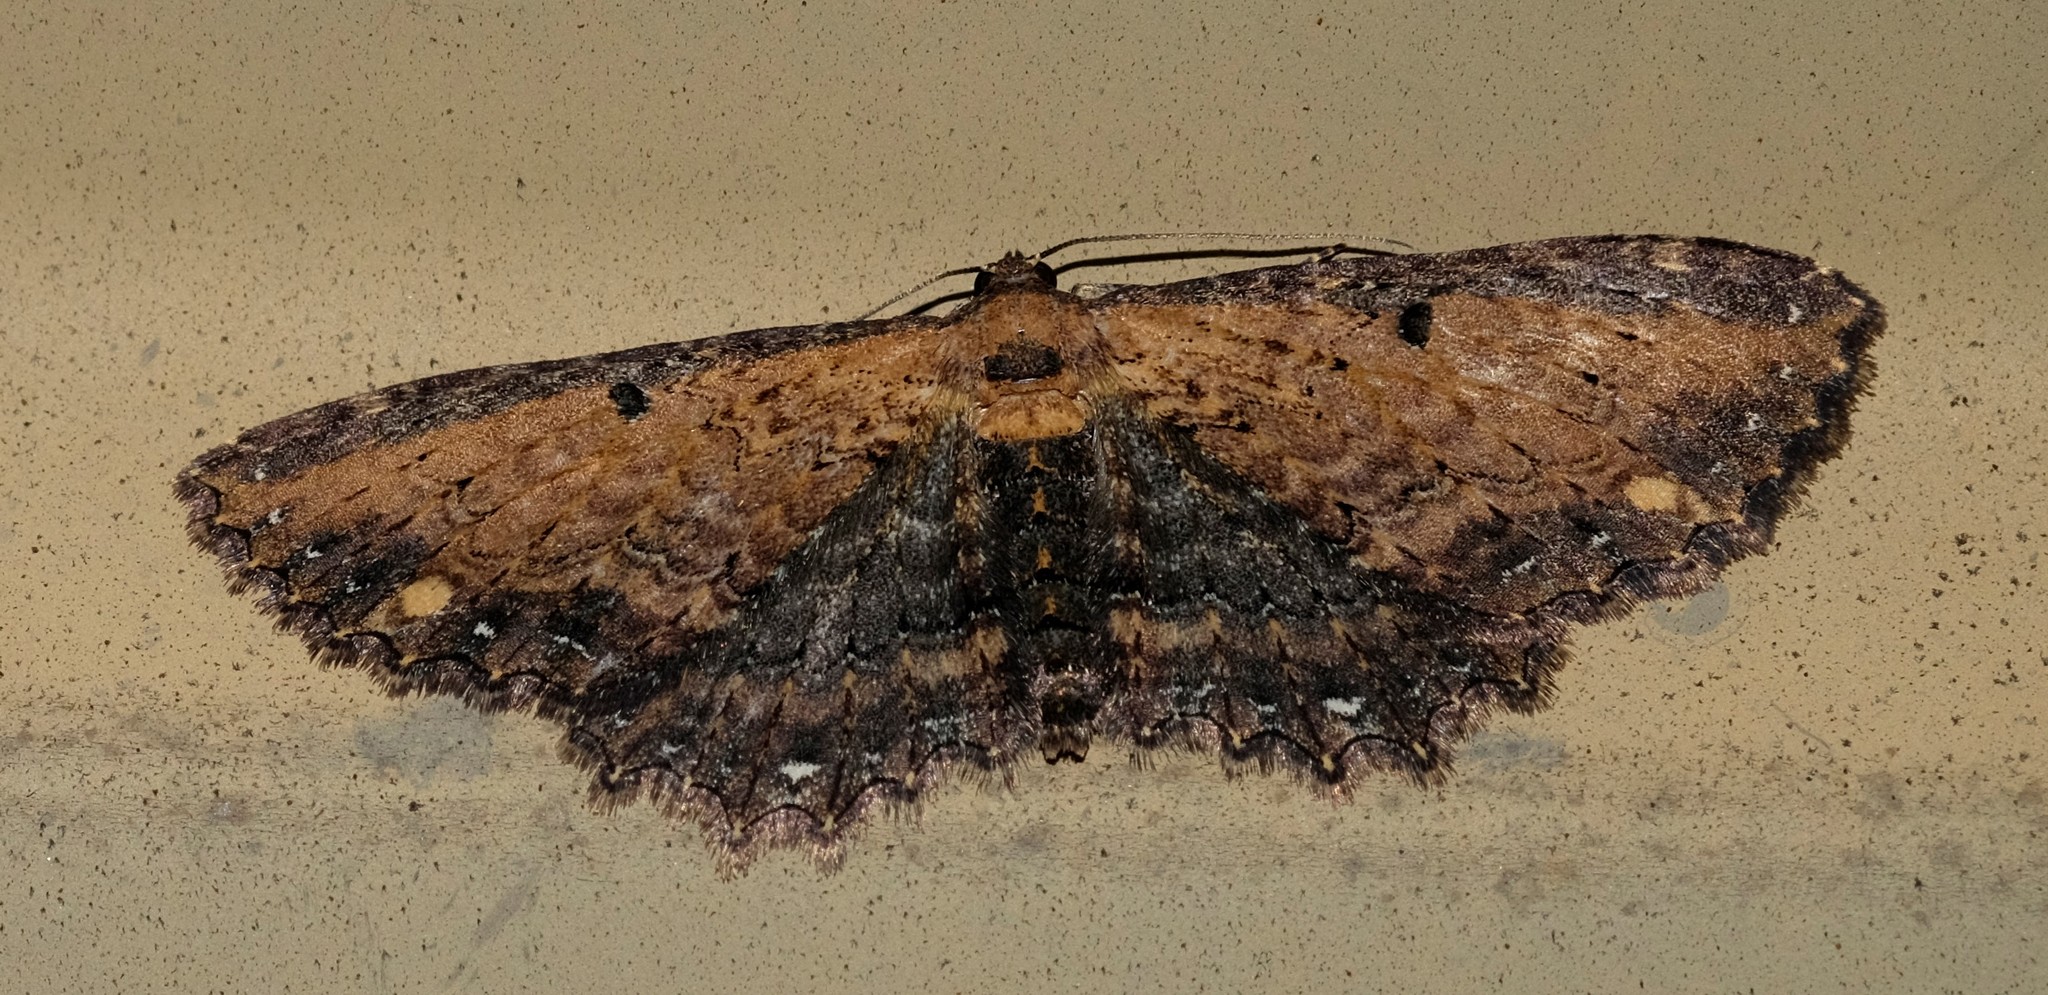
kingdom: Animalia
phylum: Arthropoda
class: Insecta
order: Lepidoptera
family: Geometridae
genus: Eccymatoge
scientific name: Eccymatoge callizona
